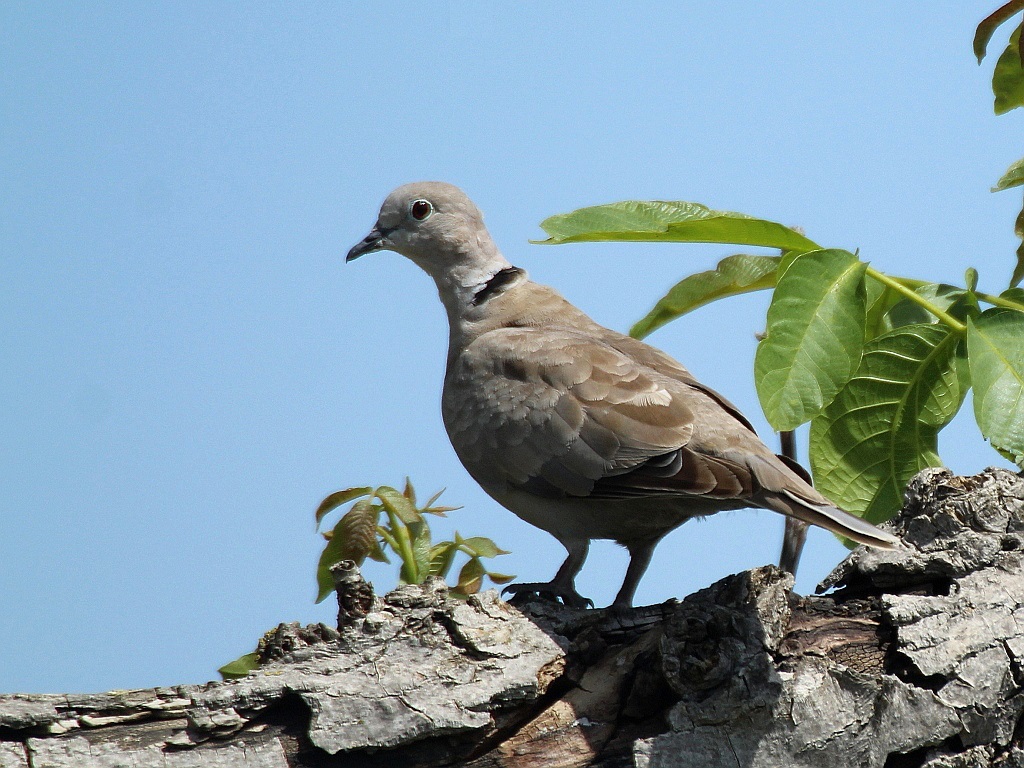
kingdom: Animalia
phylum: Chordata
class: Aves
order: Columbiformes
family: Columbidae
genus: Streptopelia
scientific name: Streptopelia decaocto
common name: Eurasian collared dove
